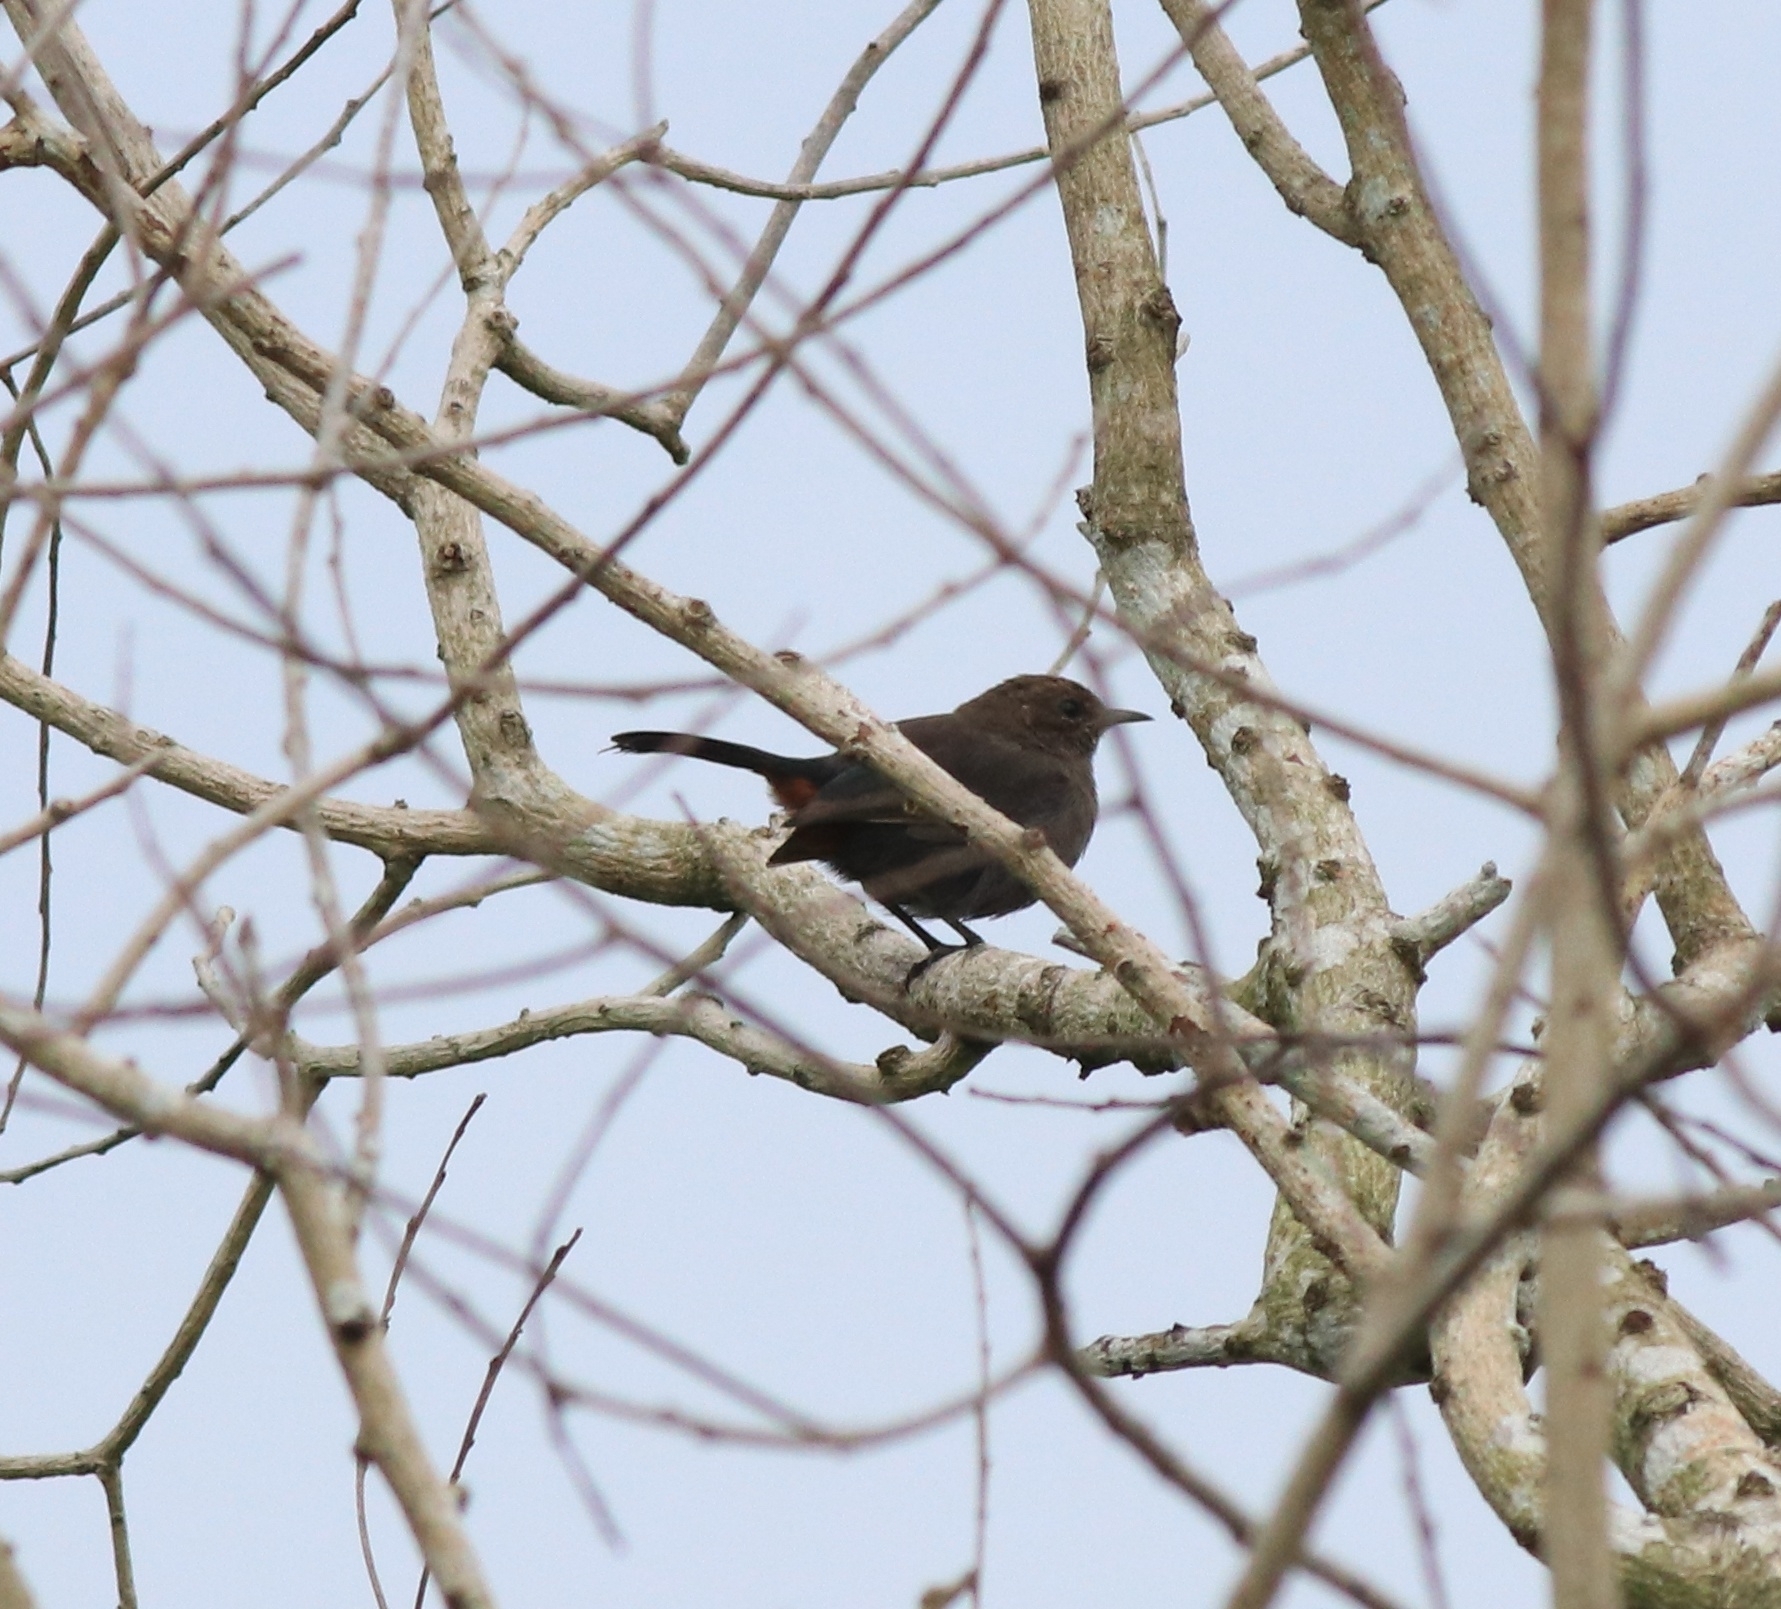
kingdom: Animalia
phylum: Chordata
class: Aves
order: Passeriformes
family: Muscicapidae
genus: Saxicoloides
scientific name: Saxicoloides fulicatus
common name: Indian robin
